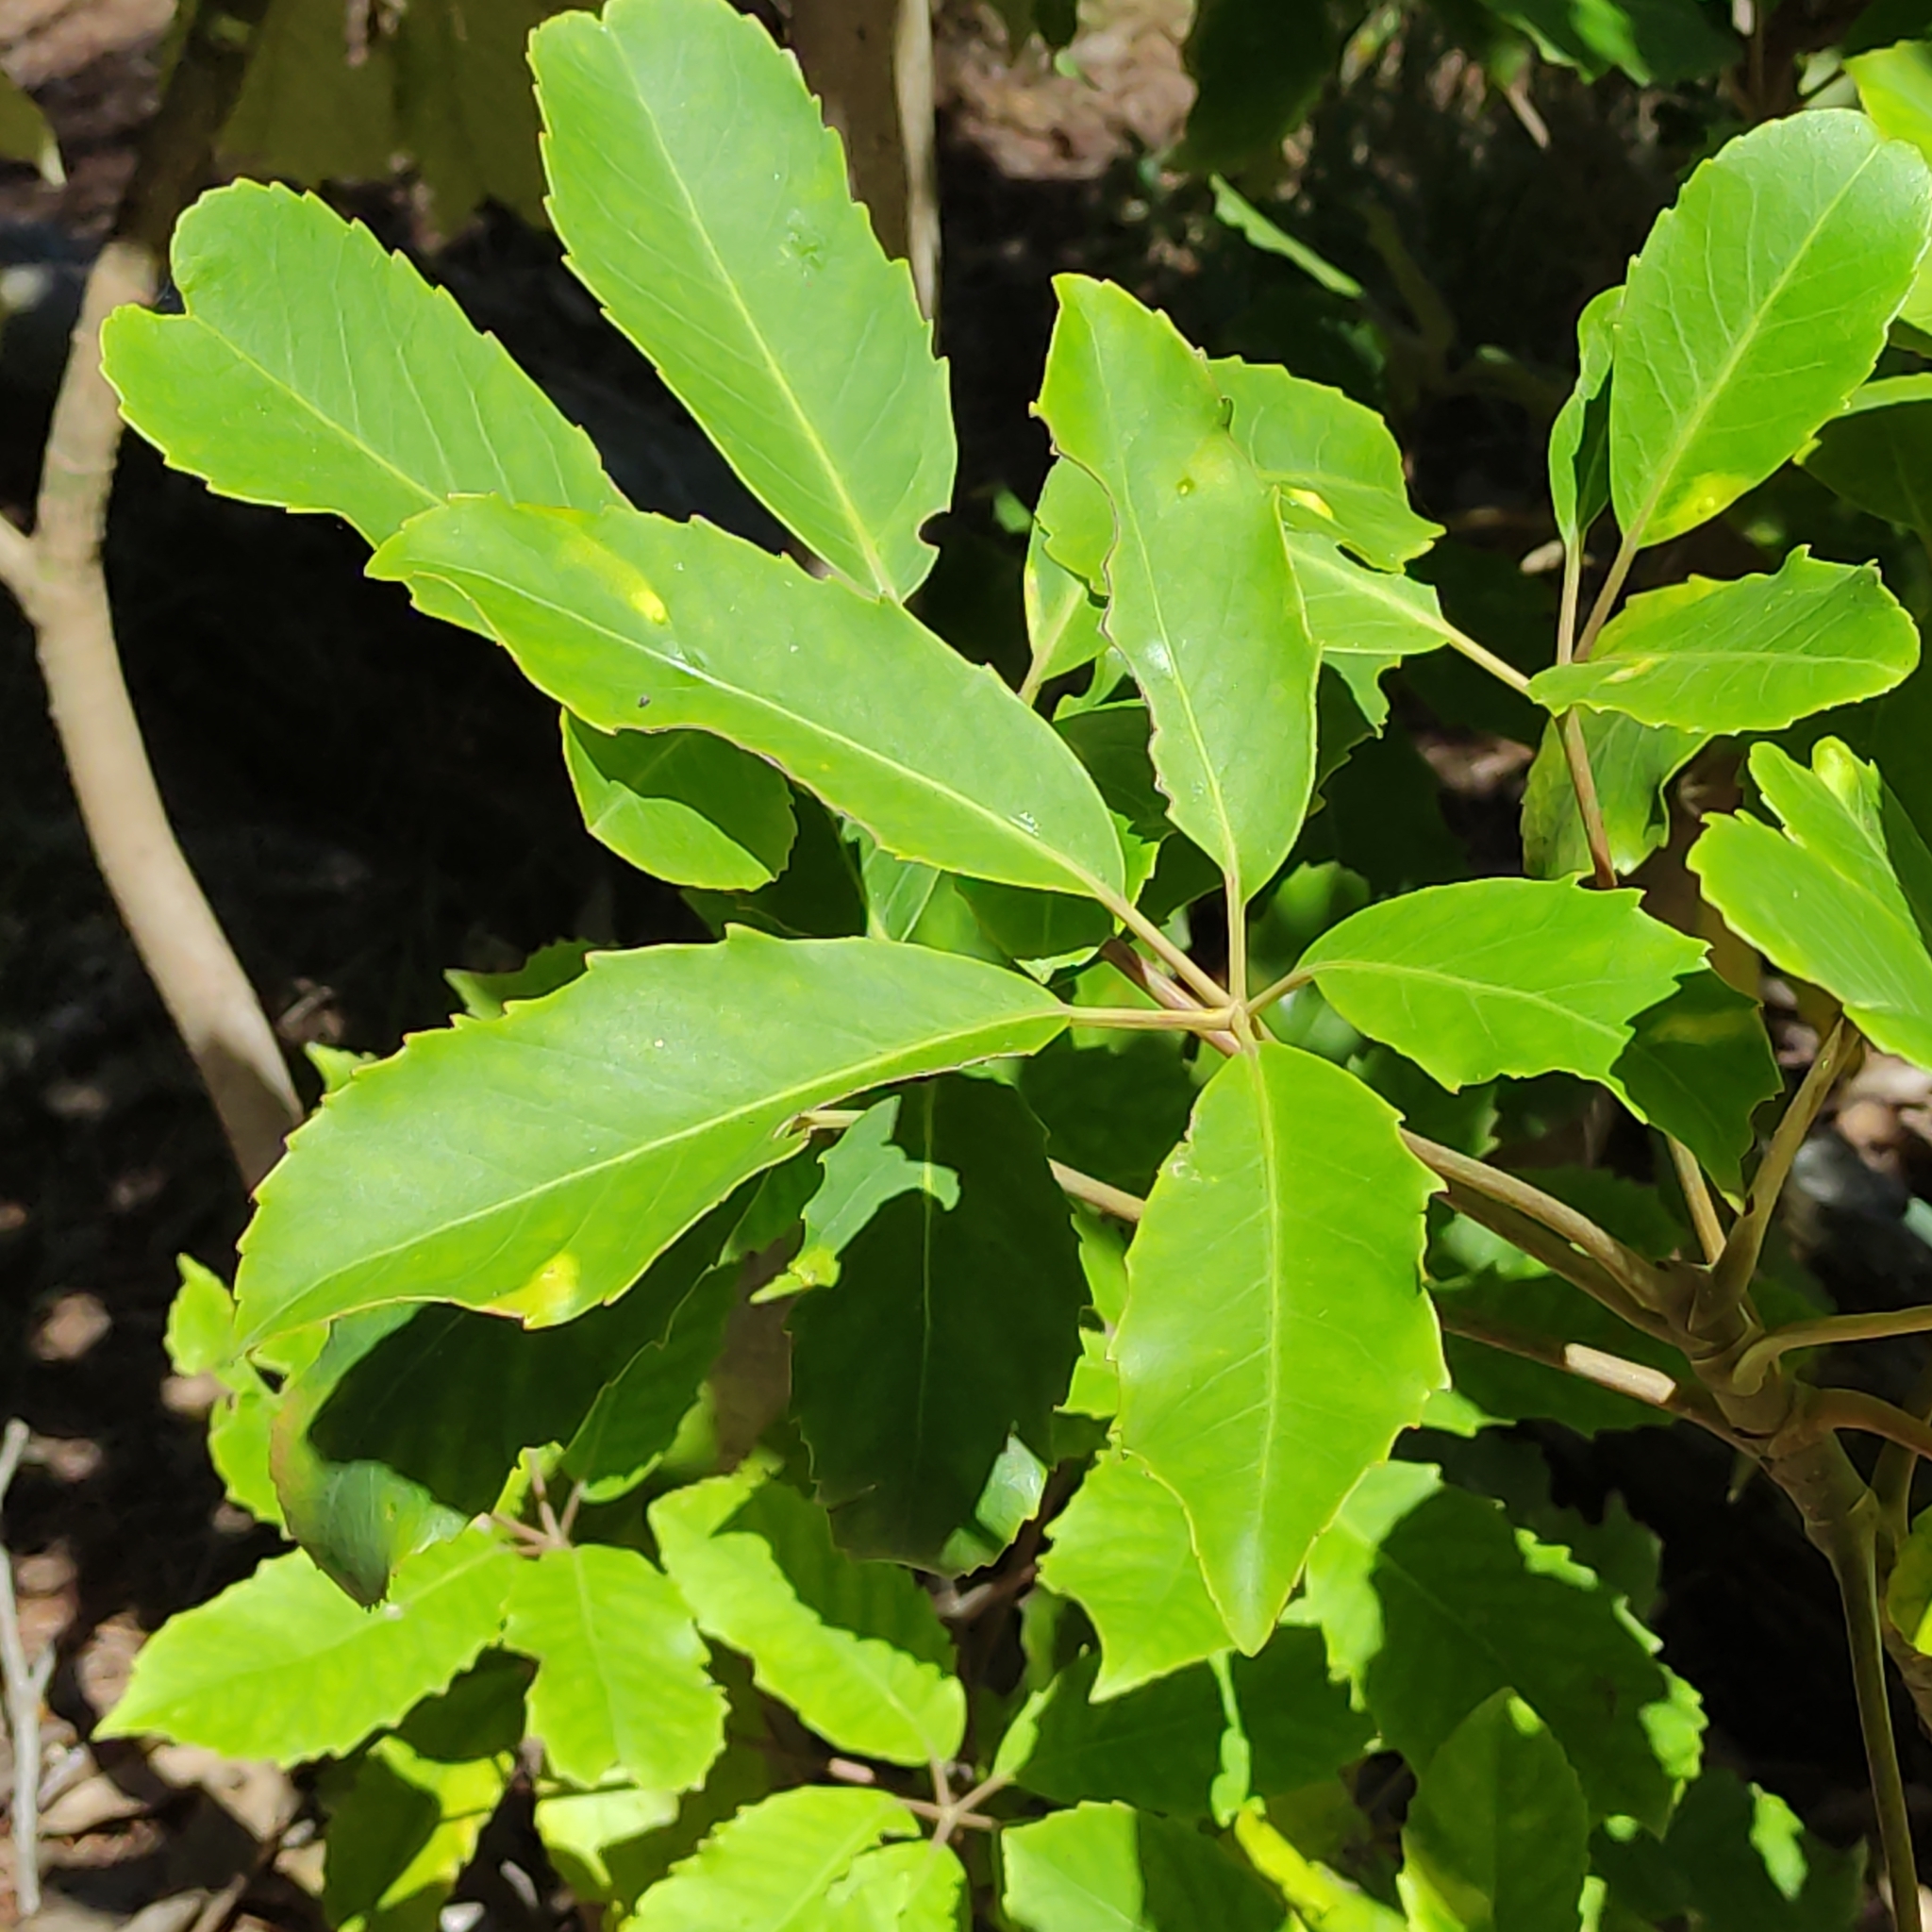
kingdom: Plantae
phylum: Tracheophyta
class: Magnoliopsida
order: Apiales
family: Araliaceae
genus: Neopanax
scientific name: Neopanax arboreus
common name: Five-fingers
